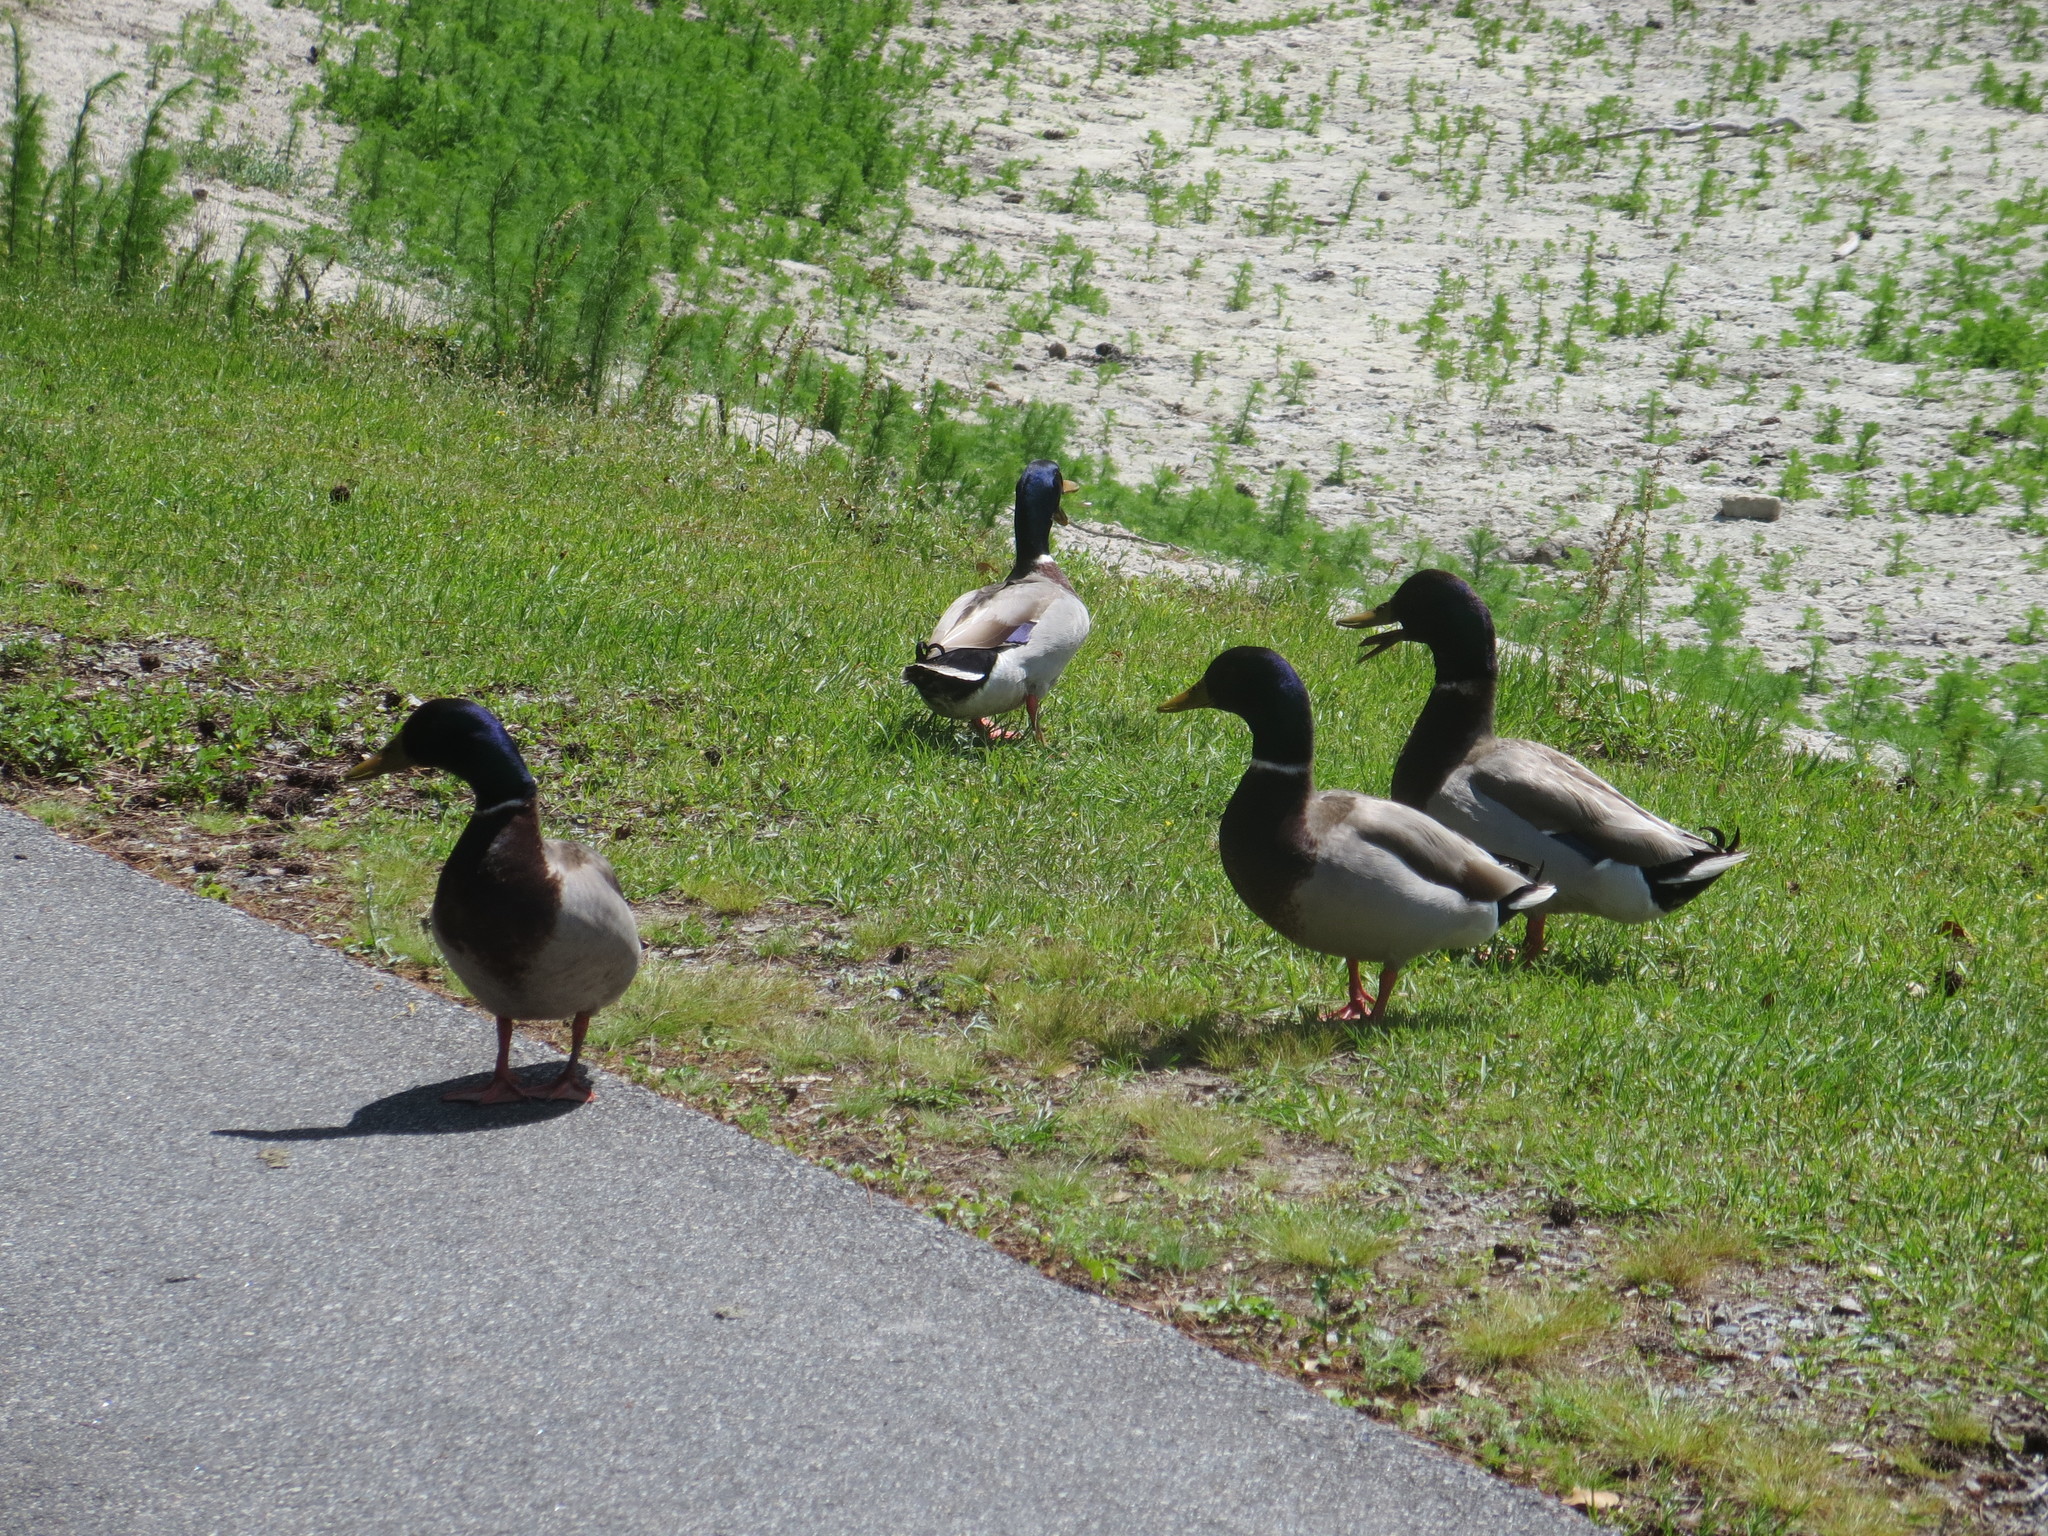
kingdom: Animalia
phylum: Chordata
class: Aves
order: Anseriformes
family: Anatidae
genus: Anas
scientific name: Anas platyrhynchos
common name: Mallard
